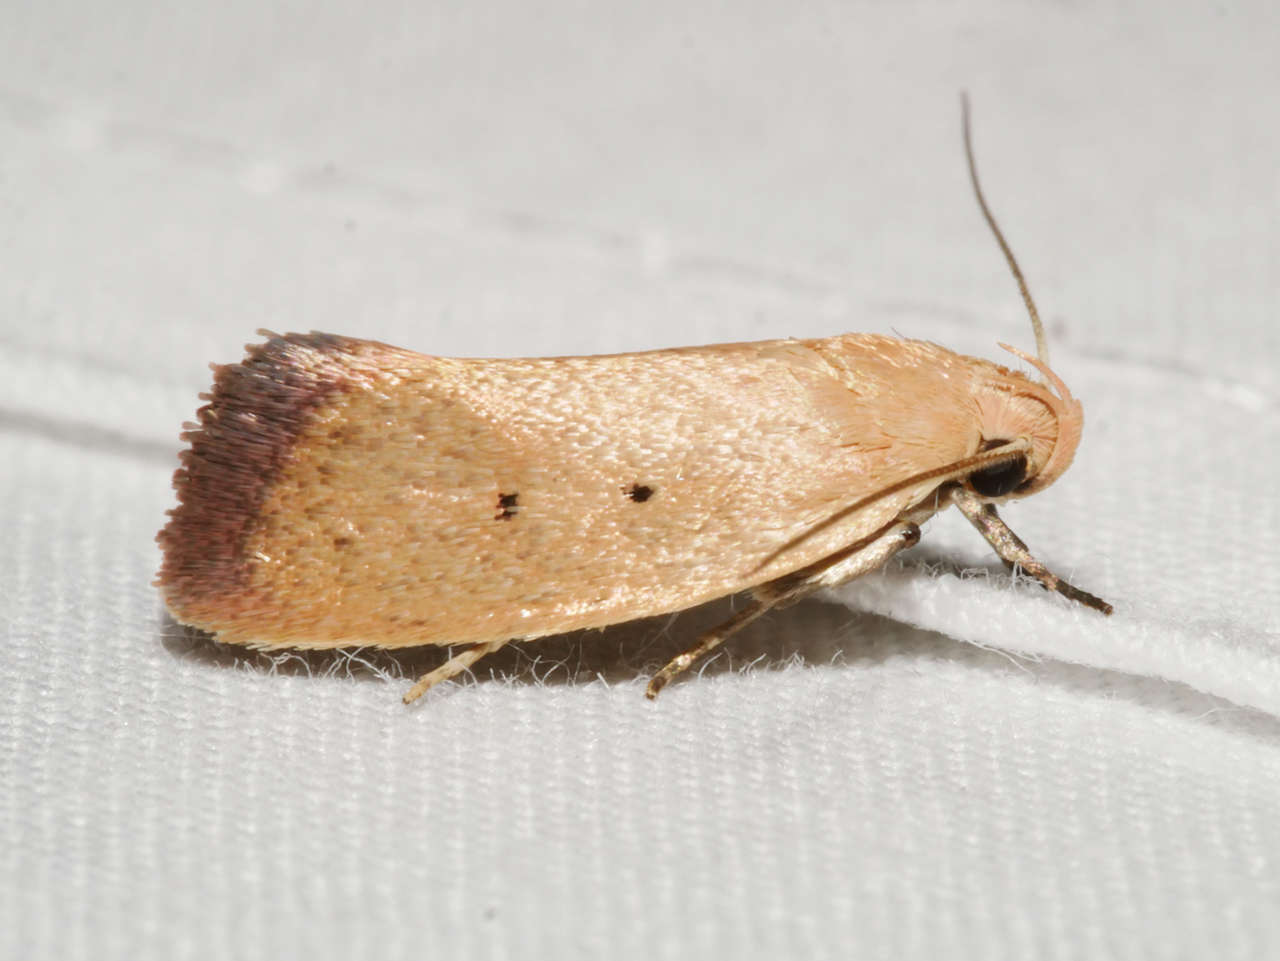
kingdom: Animalia
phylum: Arthropoda
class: Insecta
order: Lepidoptera
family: Oecophoridae
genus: Acanthodela
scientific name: Acanthodela protophaes
